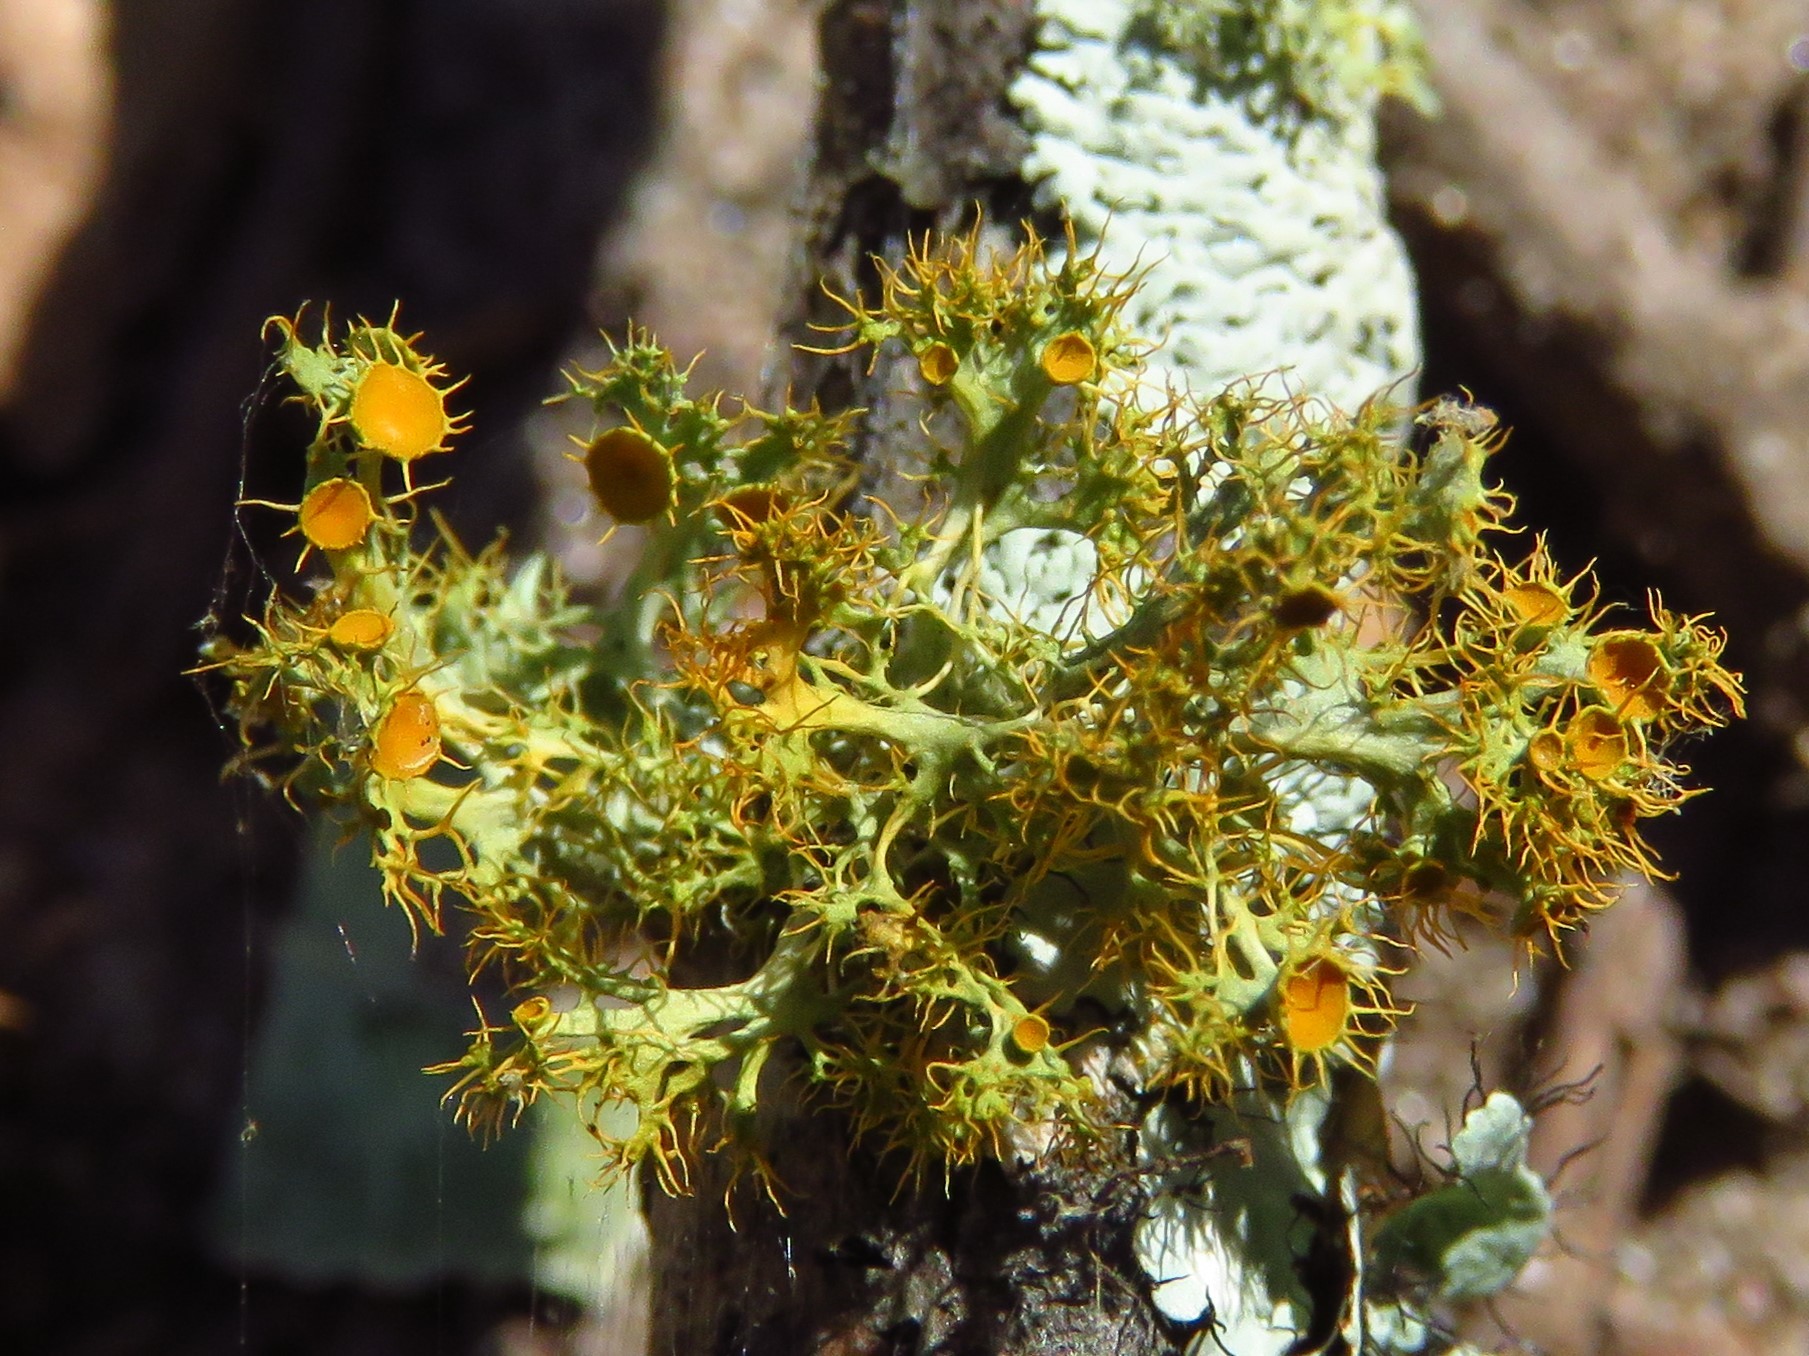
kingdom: Fungi
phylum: Ascomycota
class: Lecanoromycetes
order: Teloschistales
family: Teloschistaceae
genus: Niorma
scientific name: Niorma chrysophthalma
